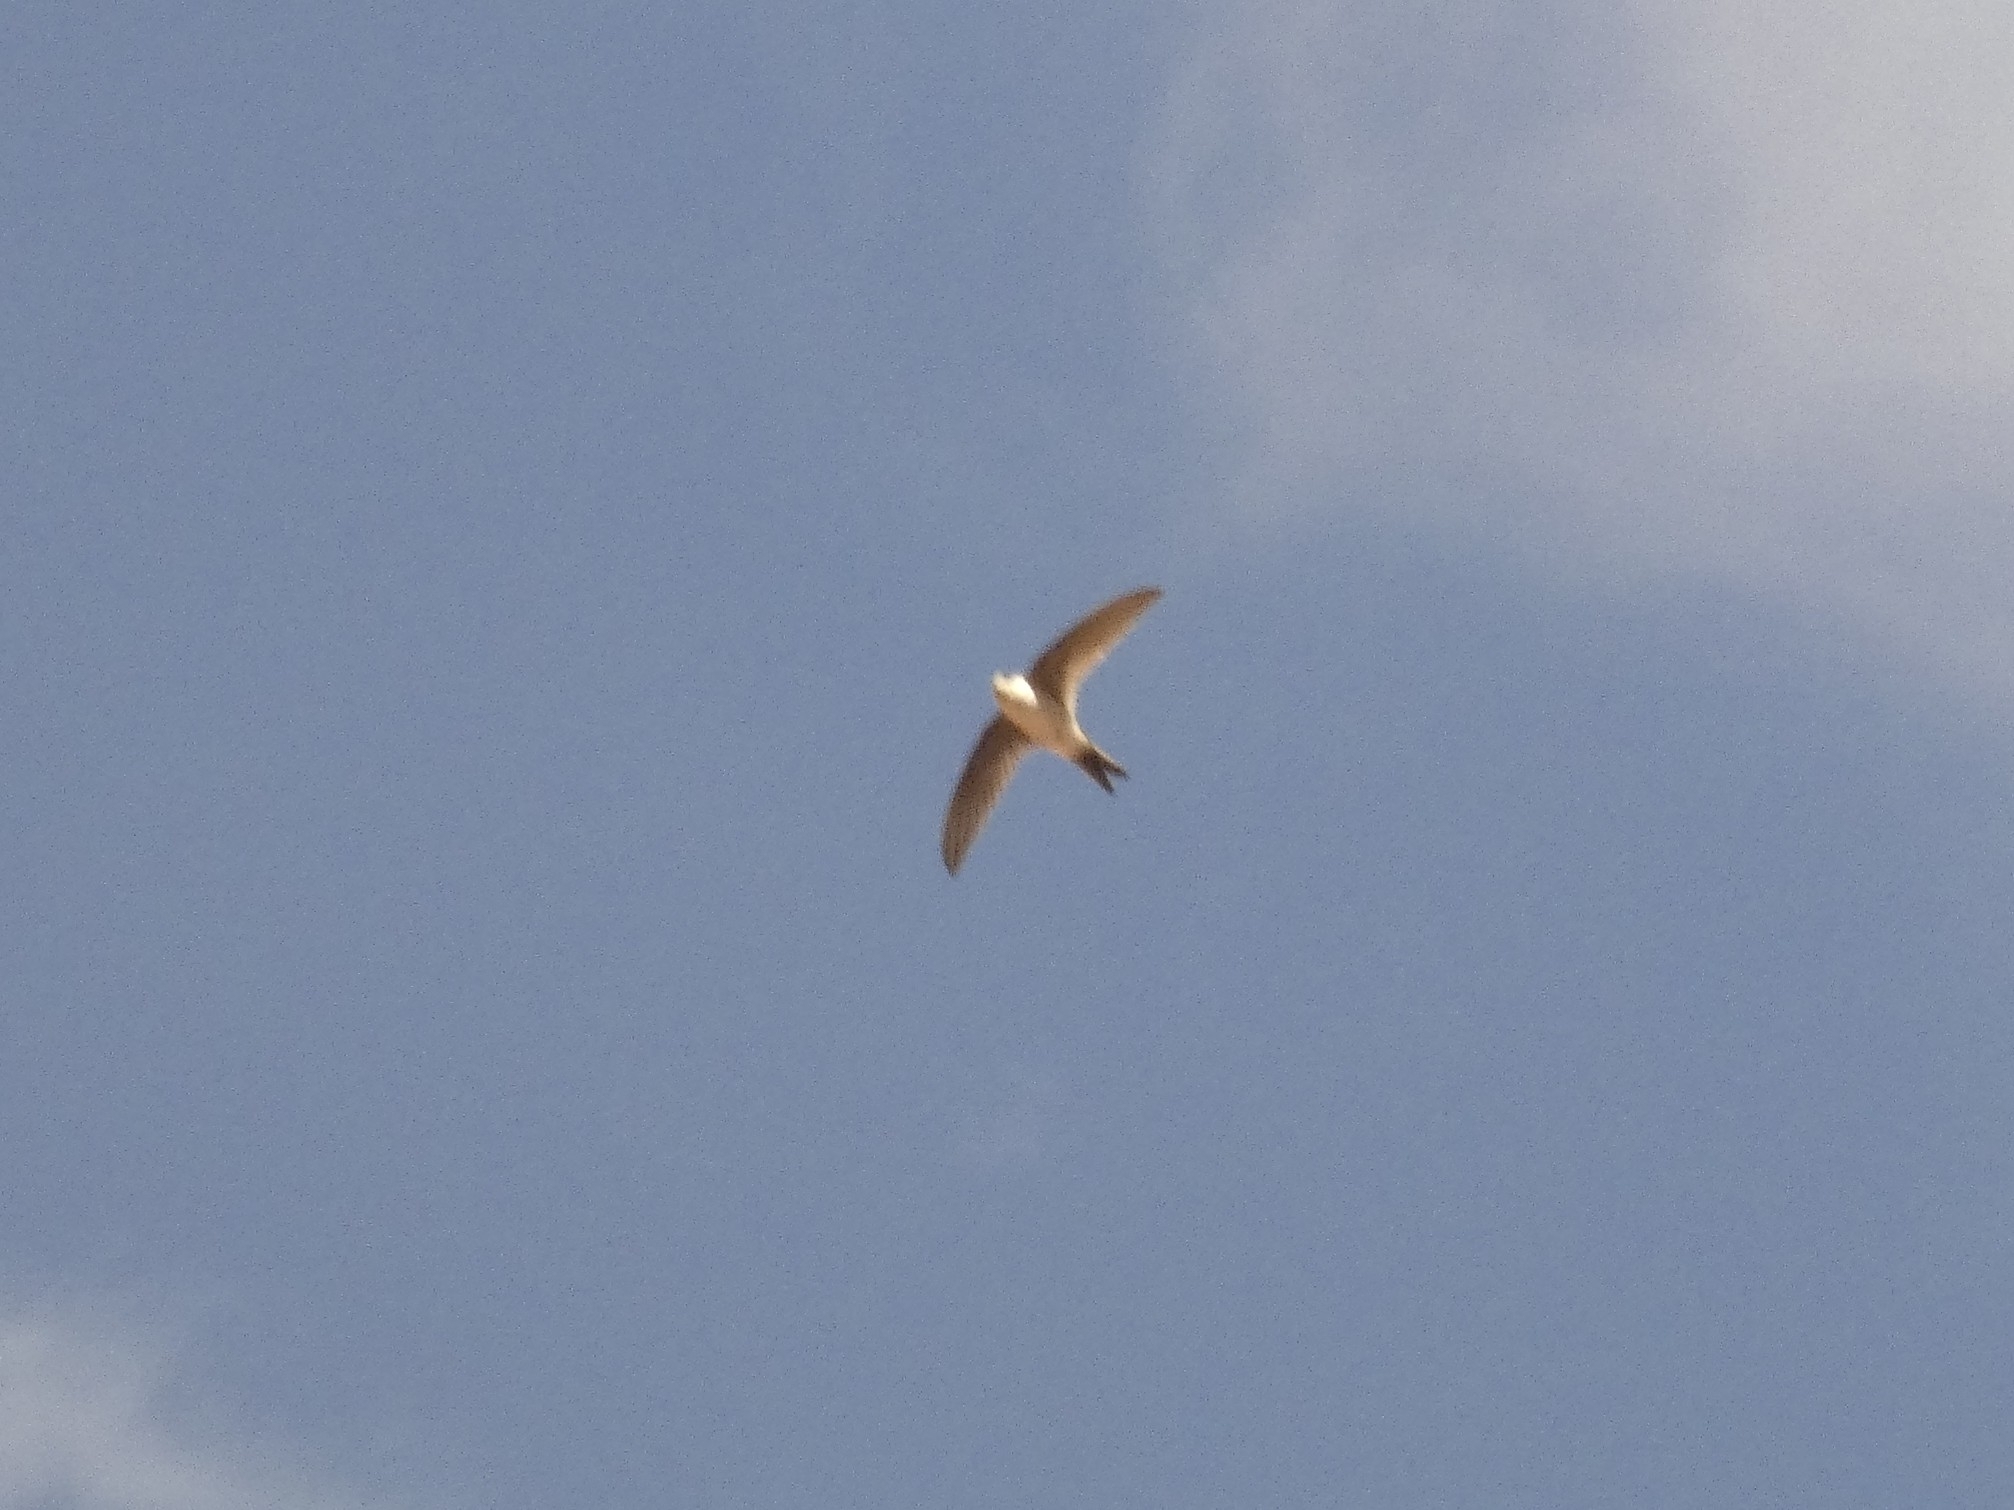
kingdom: Animalia
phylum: Chordata
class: Aves
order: Apodiformes
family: Apodidae
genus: Aeronautes
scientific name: Aeronautes andecolus
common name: Andean swift
